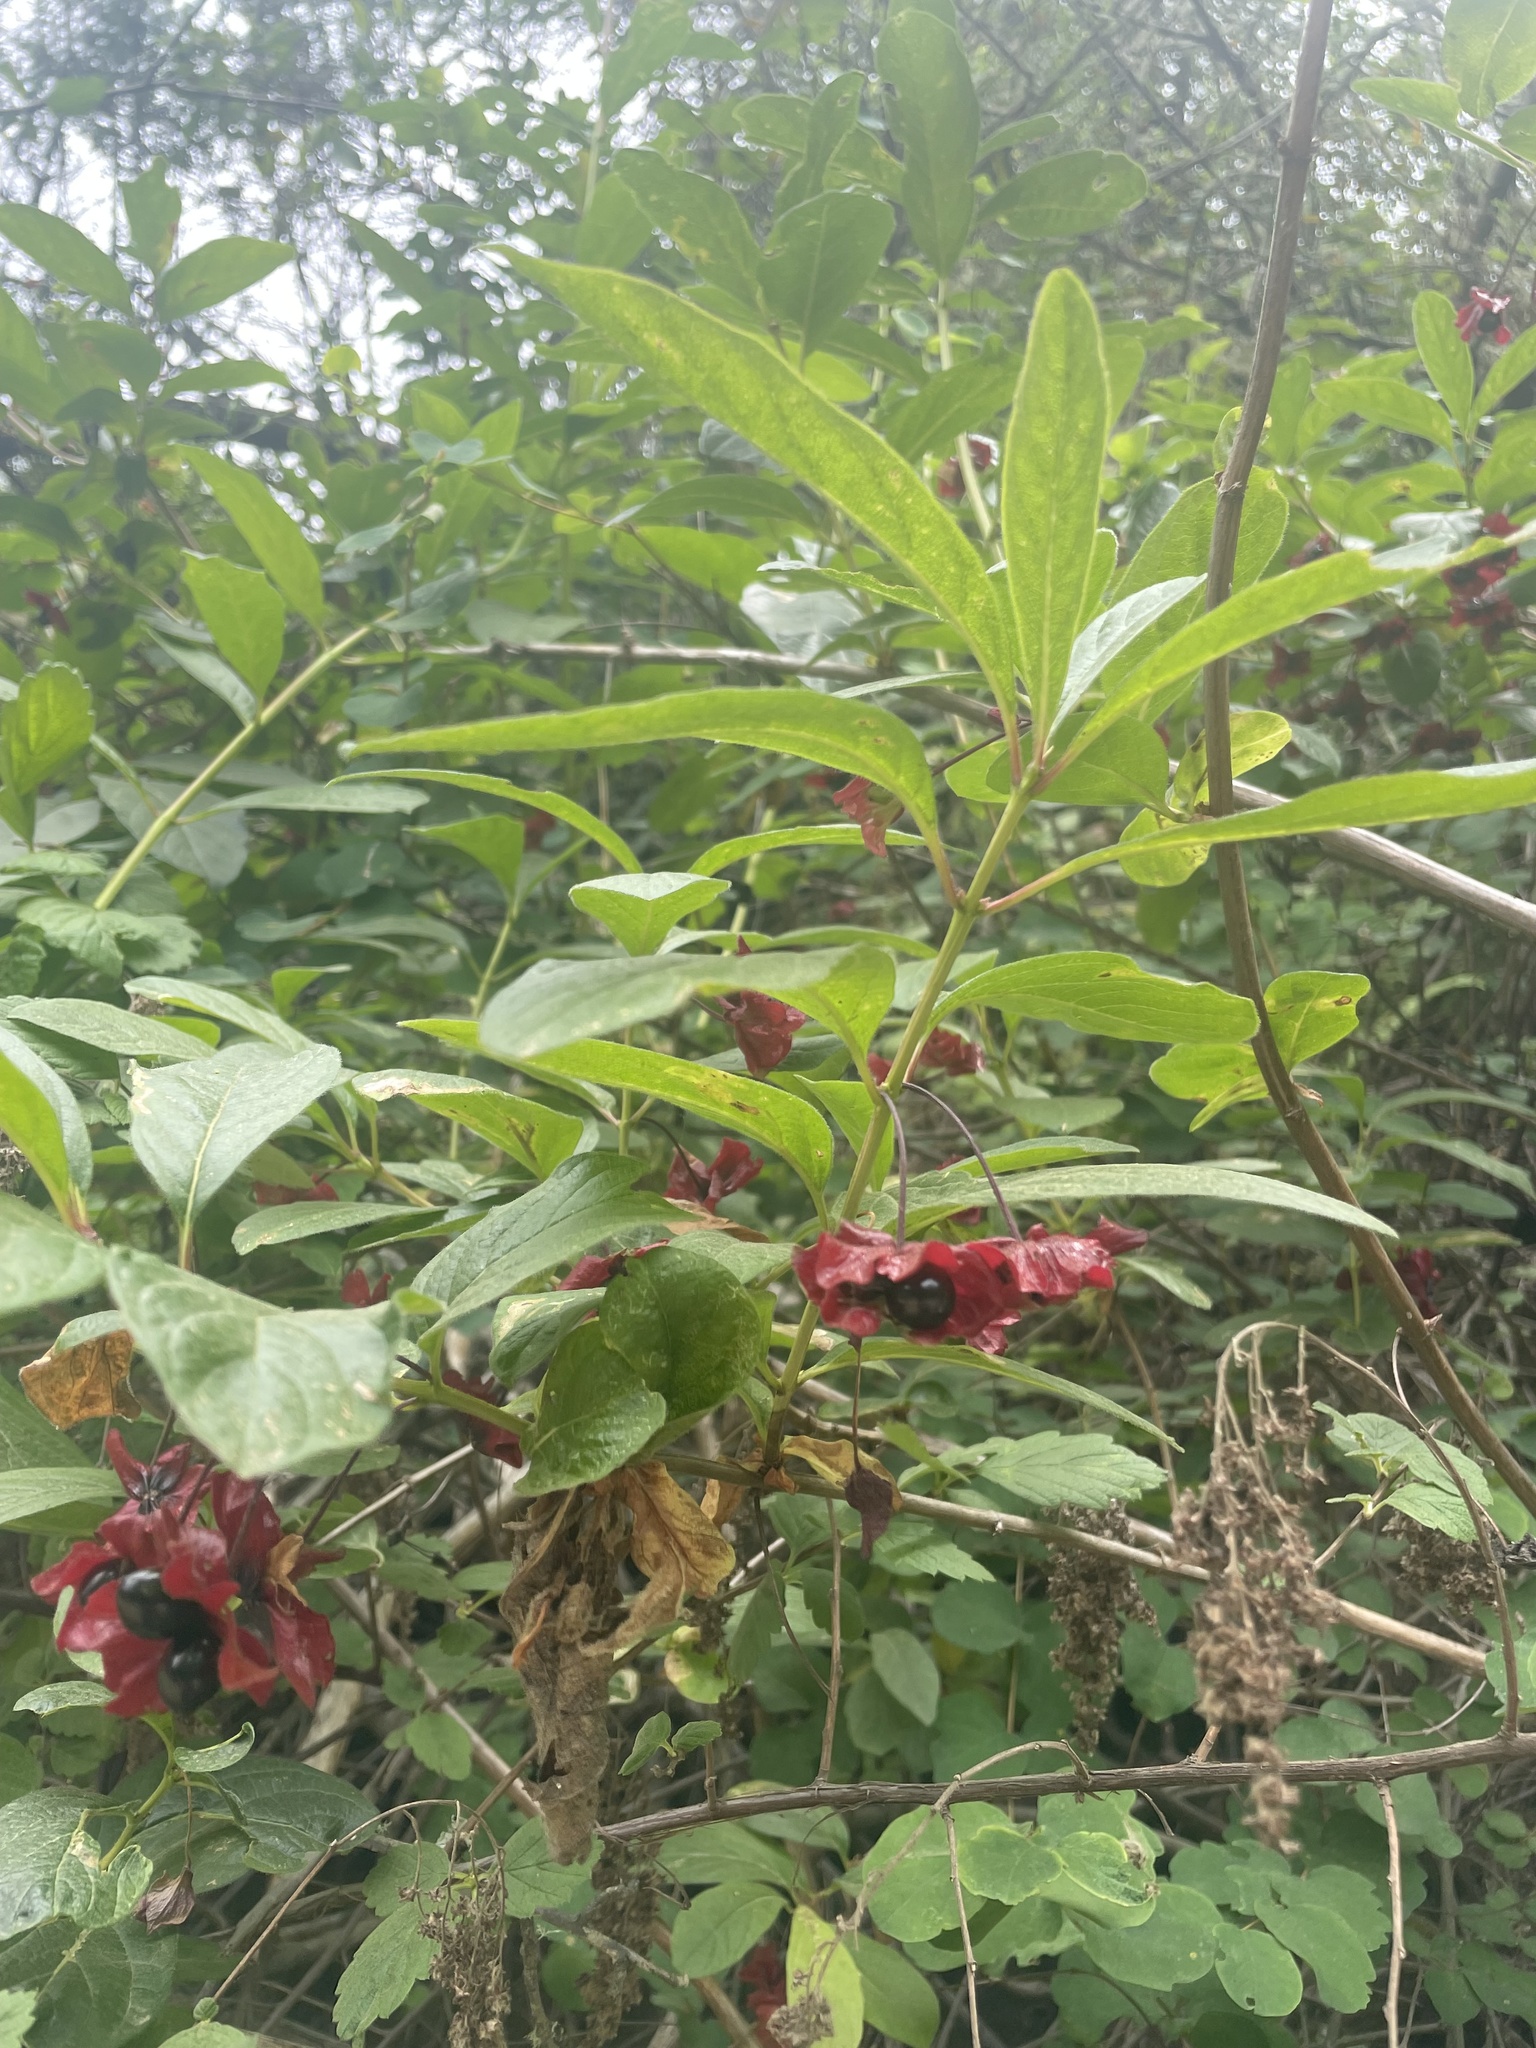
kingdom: Plantae
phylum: Tracheophyta
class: Magnoliopsida
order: Dipsacales
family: Caprifoliaceae
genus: Lonicera
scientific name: Lonicera involucrata
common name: Californian honeysuckle
